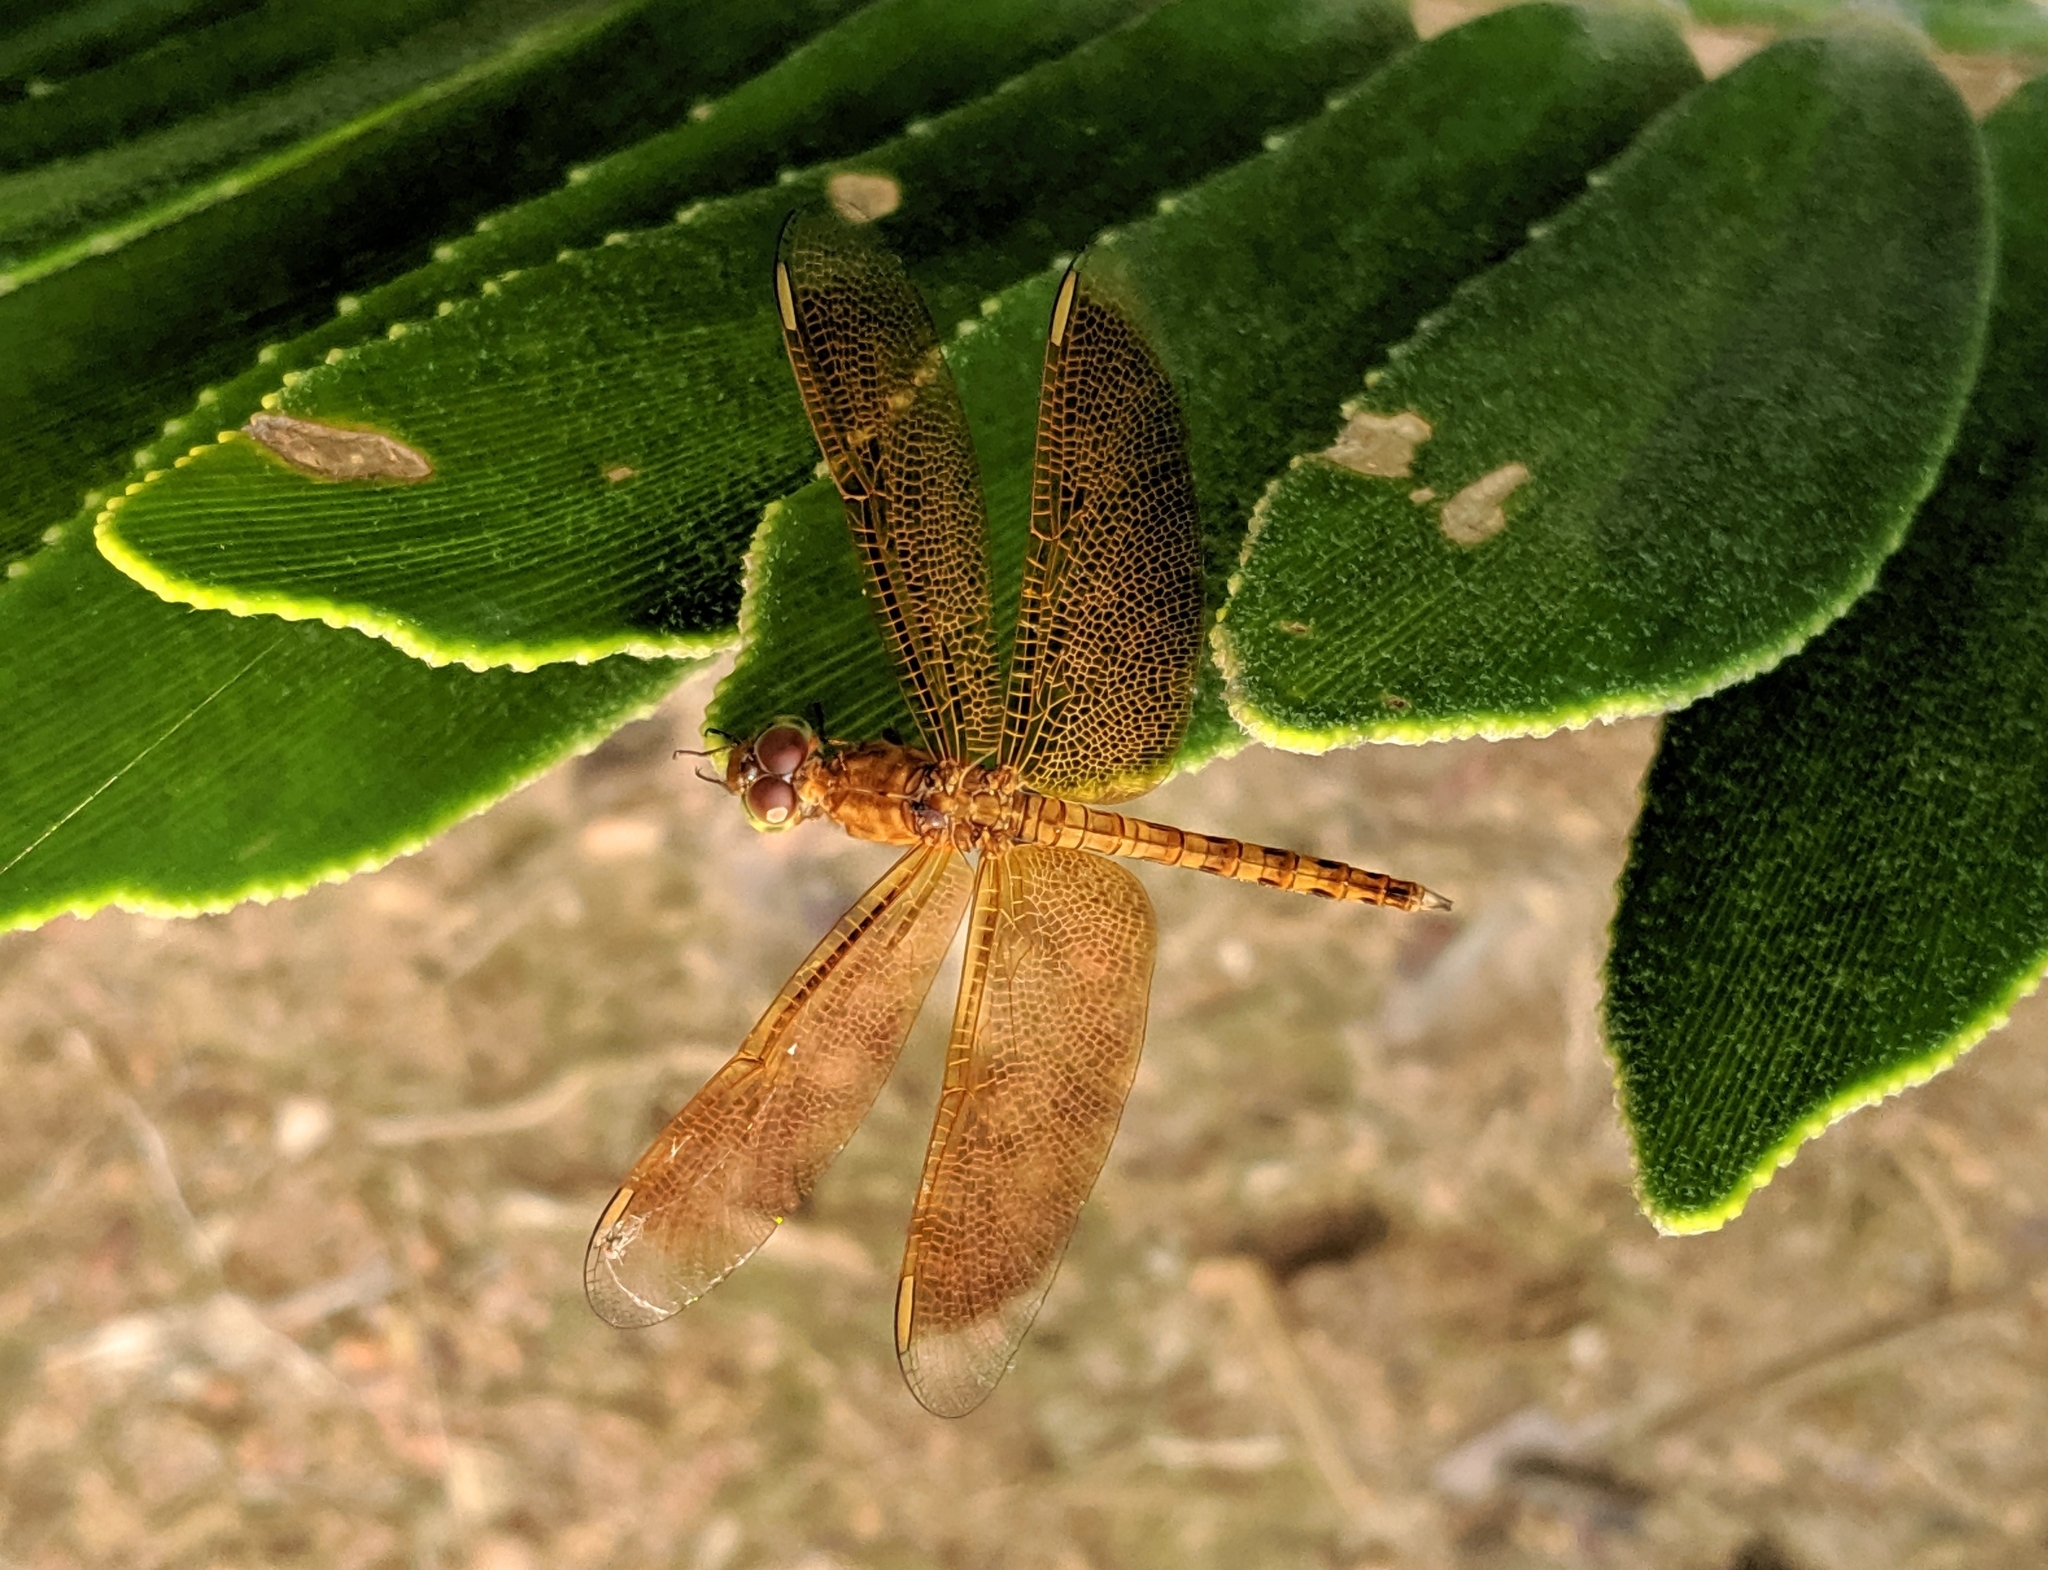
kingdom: Animalia
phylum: Arthropoda
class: Insecta
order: Odonata
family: Libellulidae
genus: Neurothemis
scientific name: Neurothemis fluctuans
